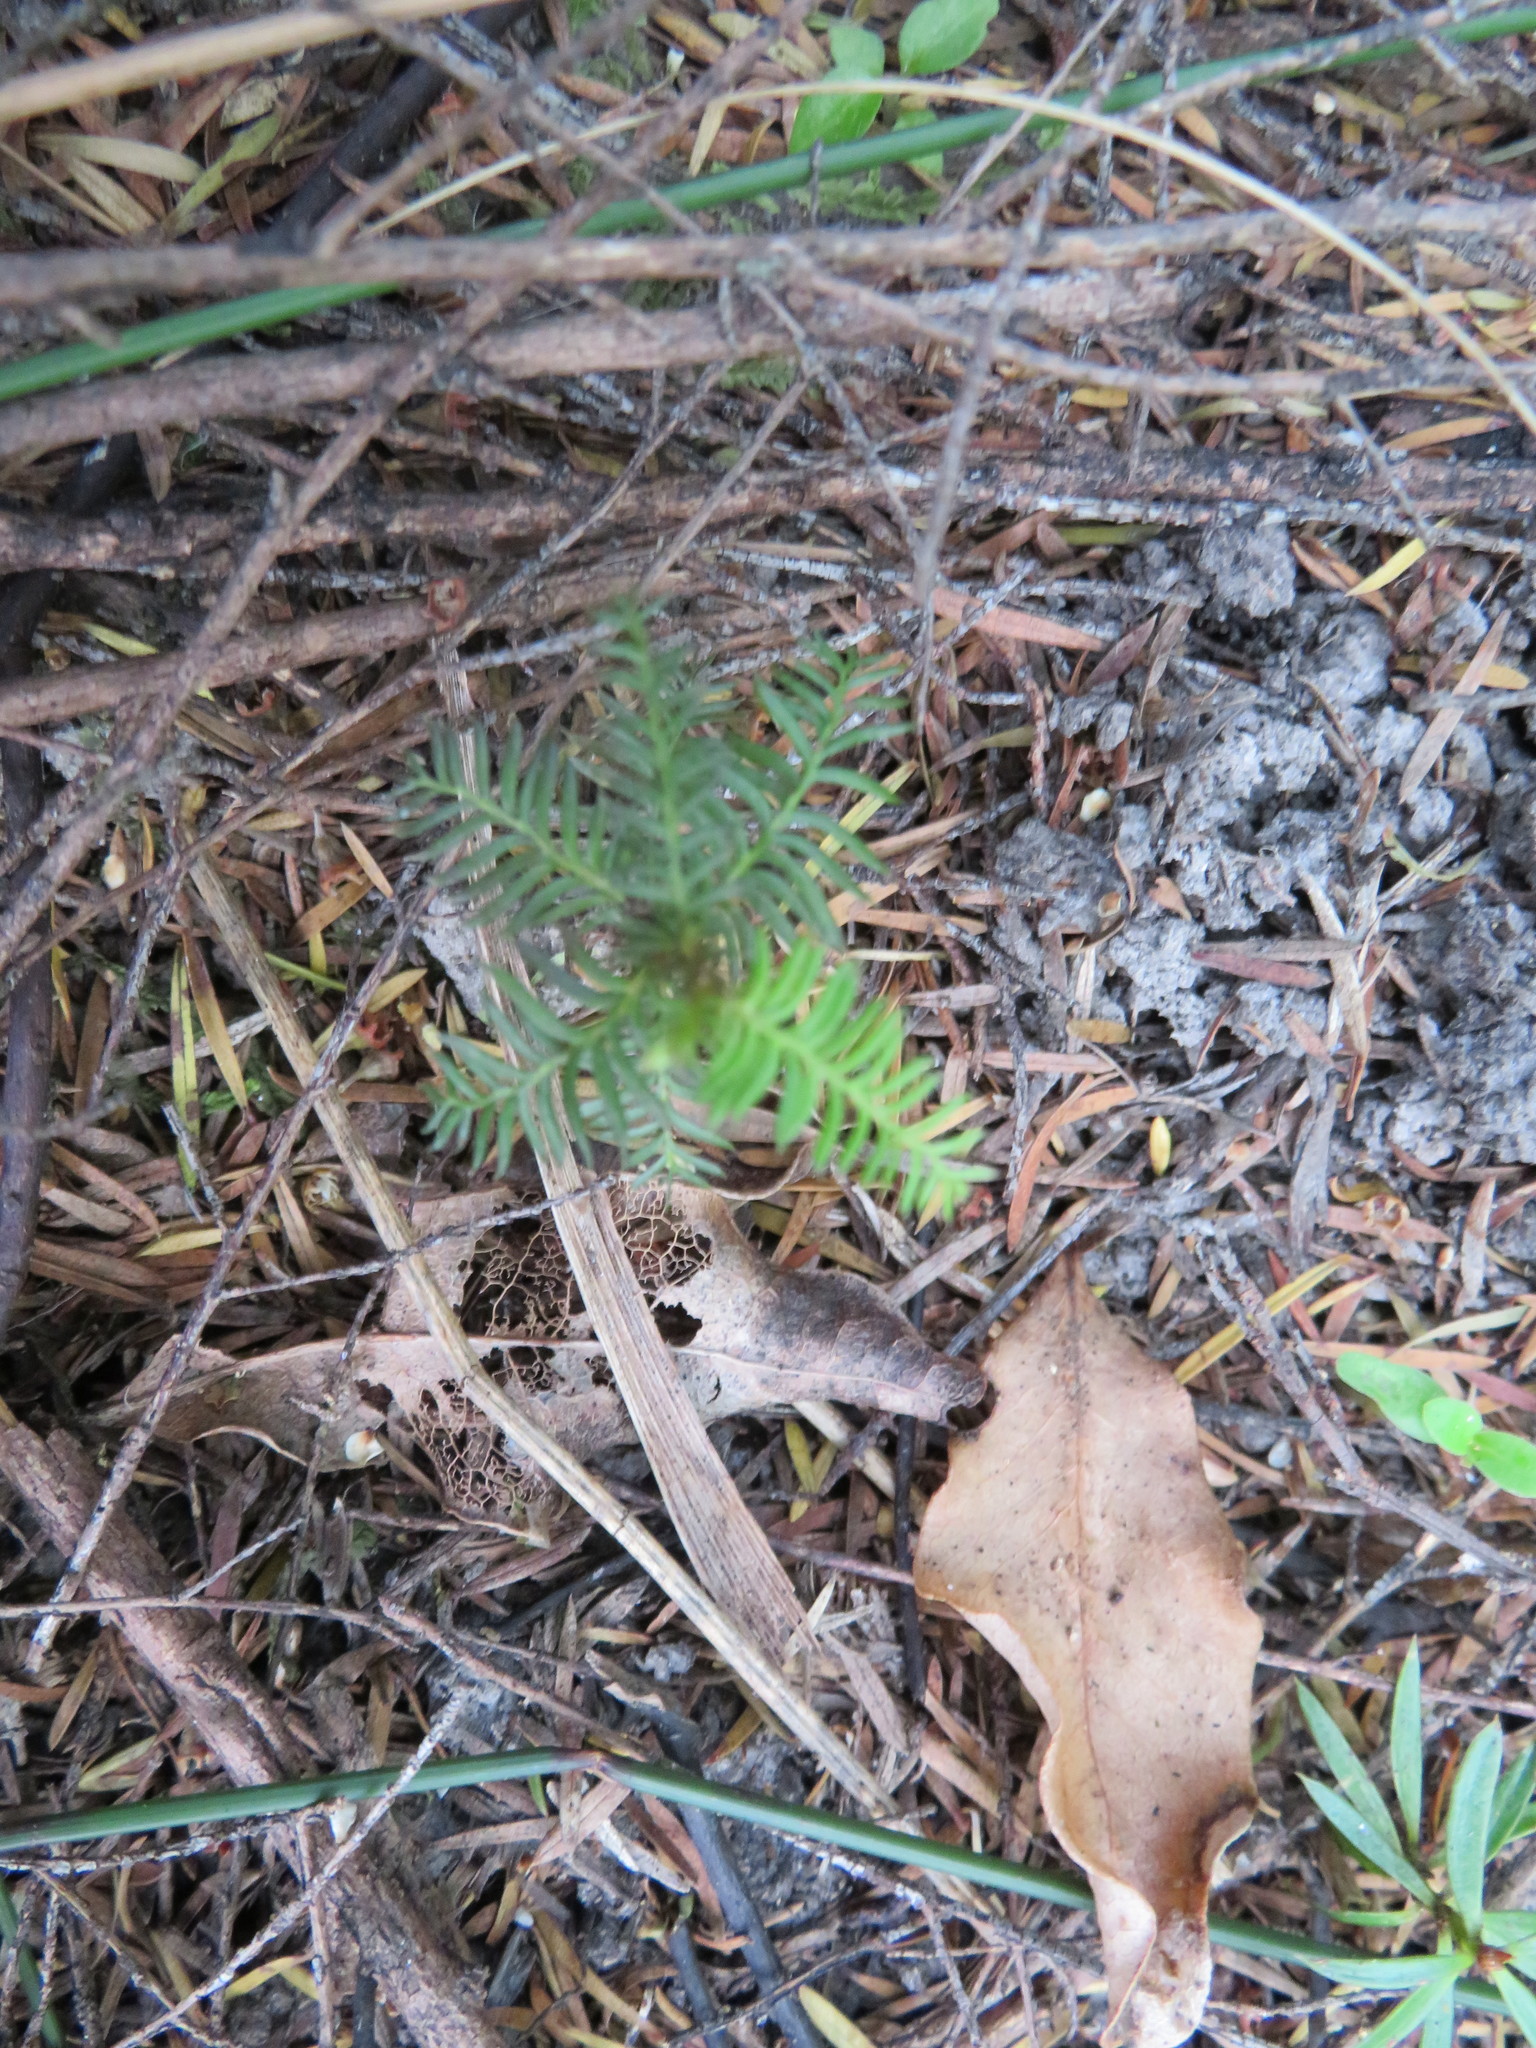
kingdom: Plantae
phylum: Tracheophyta
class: Pinopsida
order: Pinales
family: Podocarpaceae
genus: Dacrycarpus
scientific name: Dacrycarpus dacrydioides
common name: White pine
